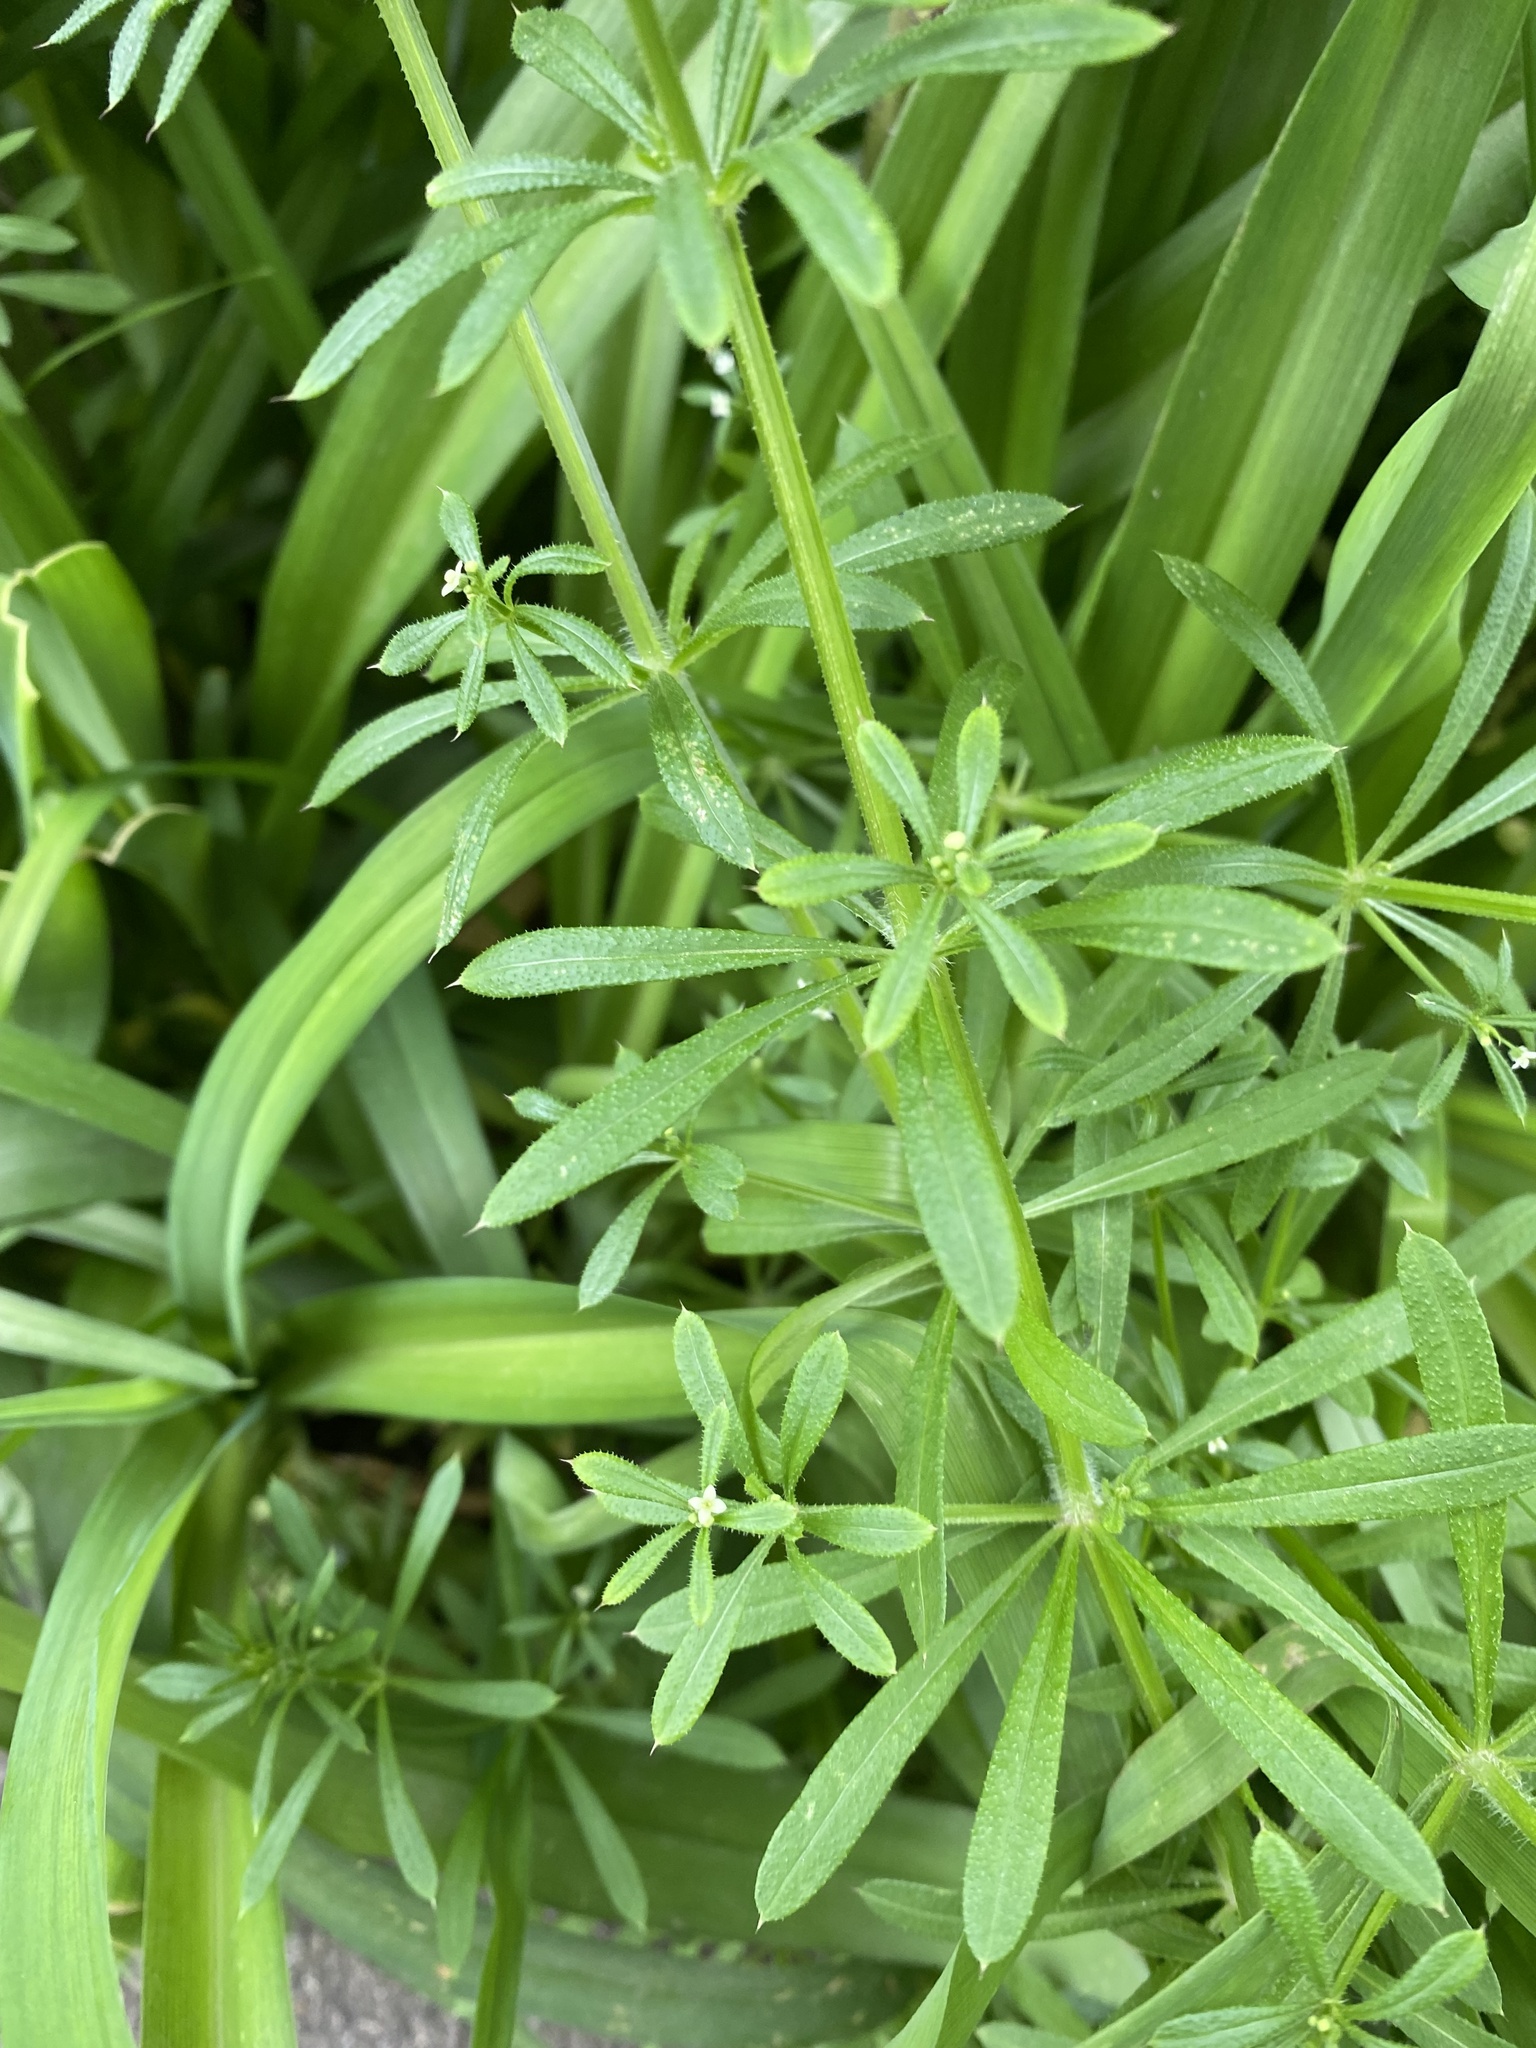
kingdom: Plantae
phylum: Tracheophyta
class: Magnoliopsida
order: Gentianales
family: Rubiaceae
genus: Galium
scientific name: Galium aparine
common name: Cleavers
